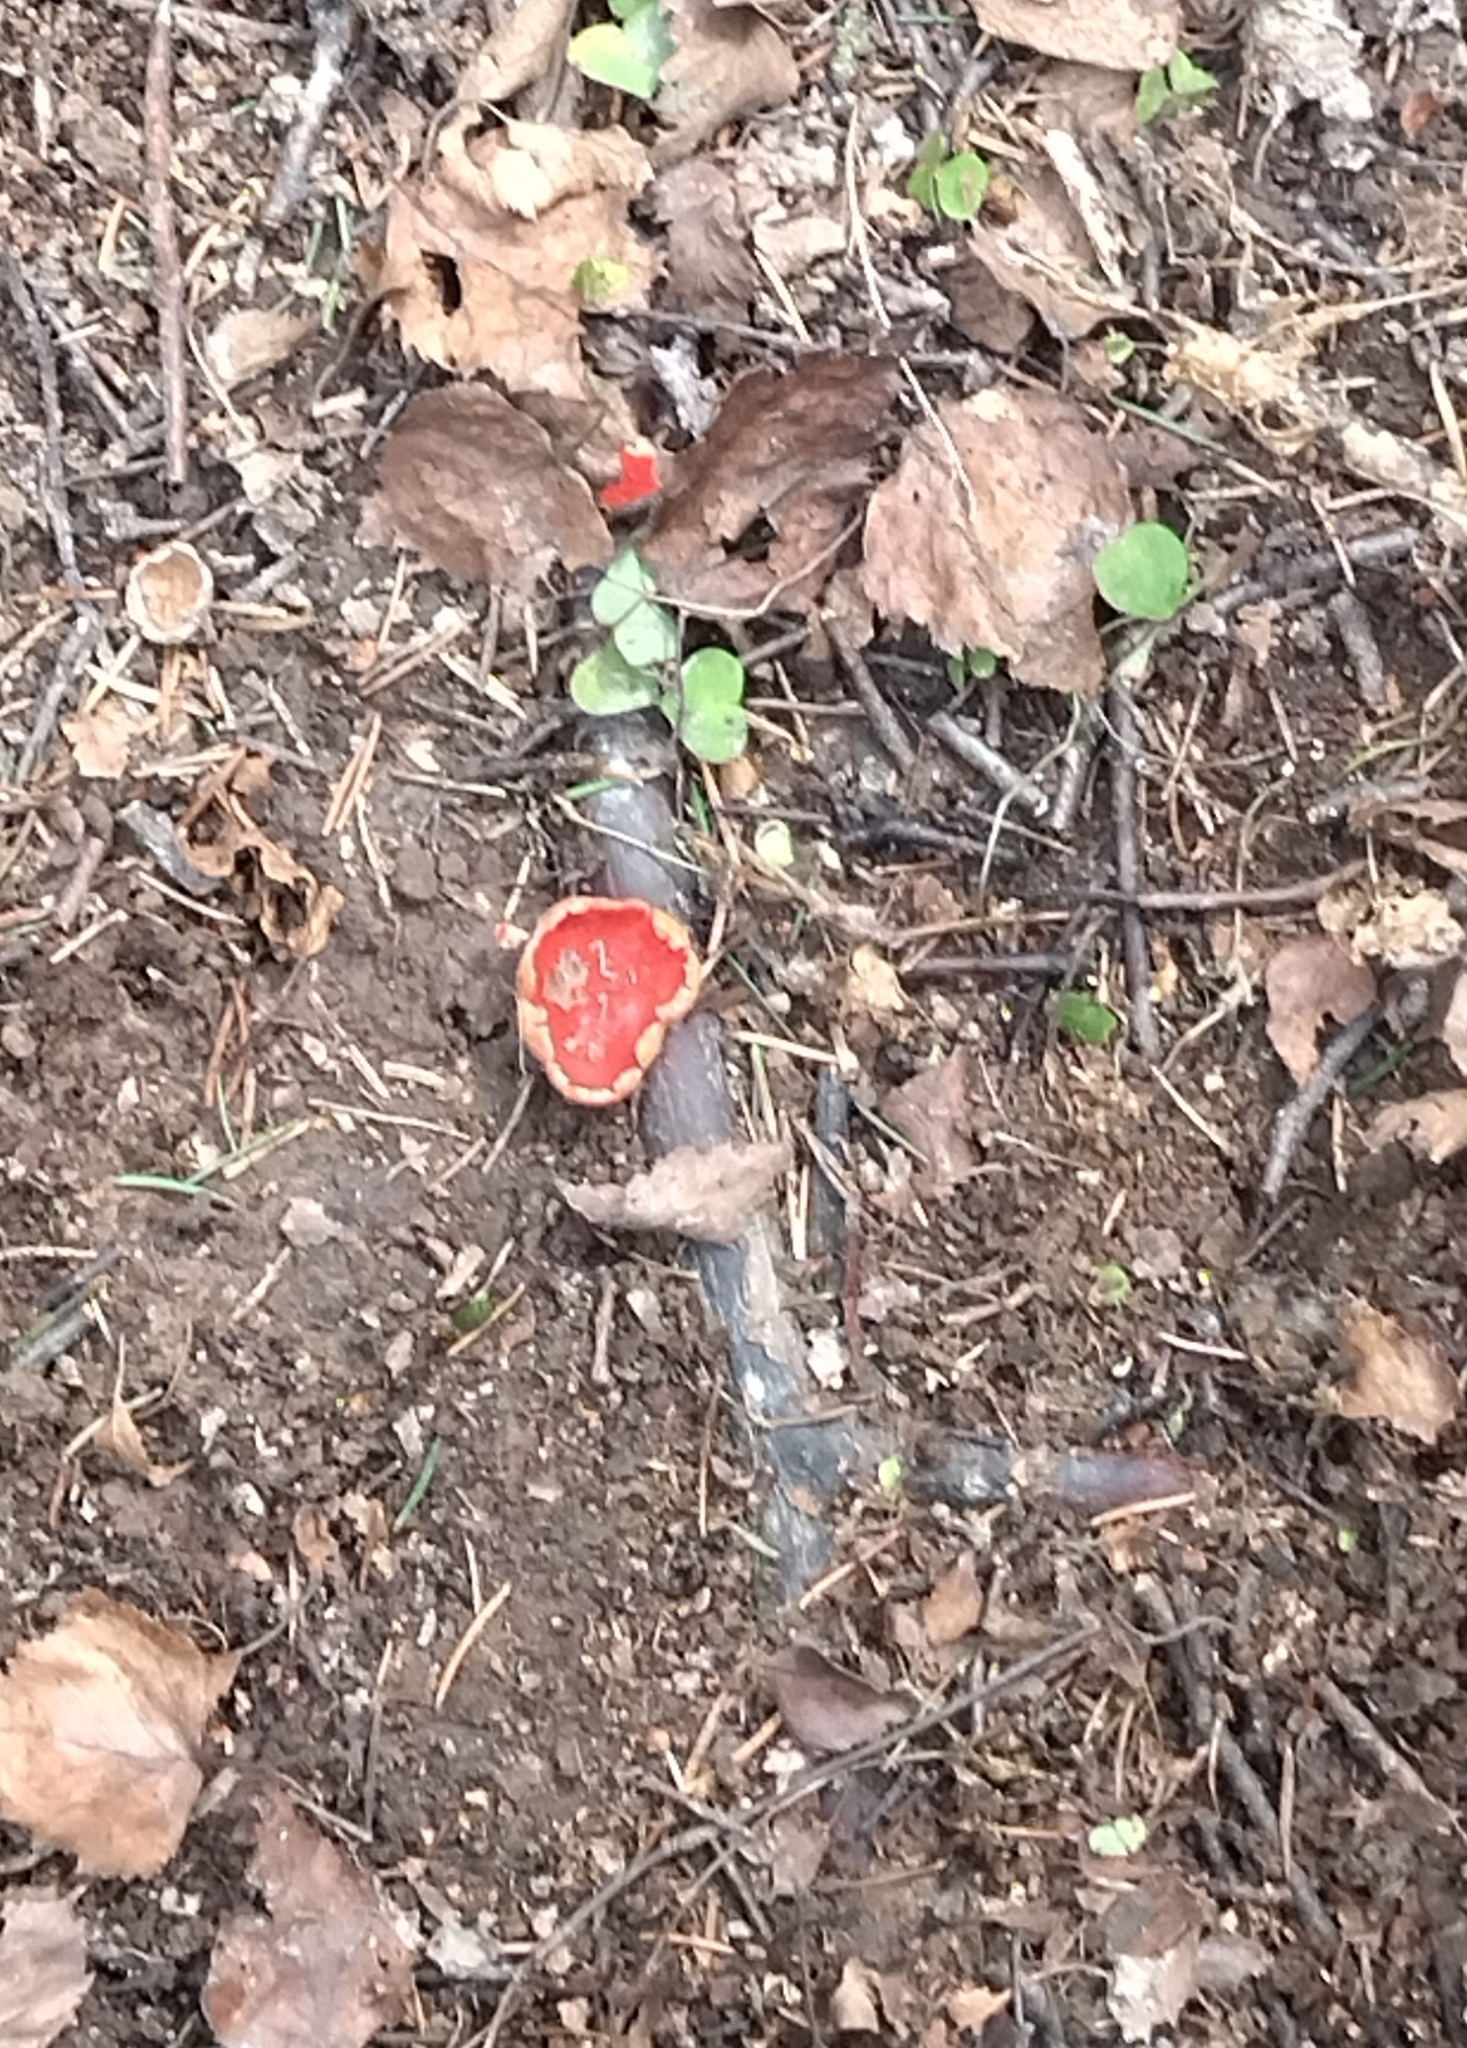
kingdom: Fungi
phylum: Ascomycota
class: Pezizomycetes
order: Pezizales
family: Sarcoscyphaceae
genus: Sarcoscypha
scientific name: Sarcoscypha austriaca
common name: Scarlet elfcup
